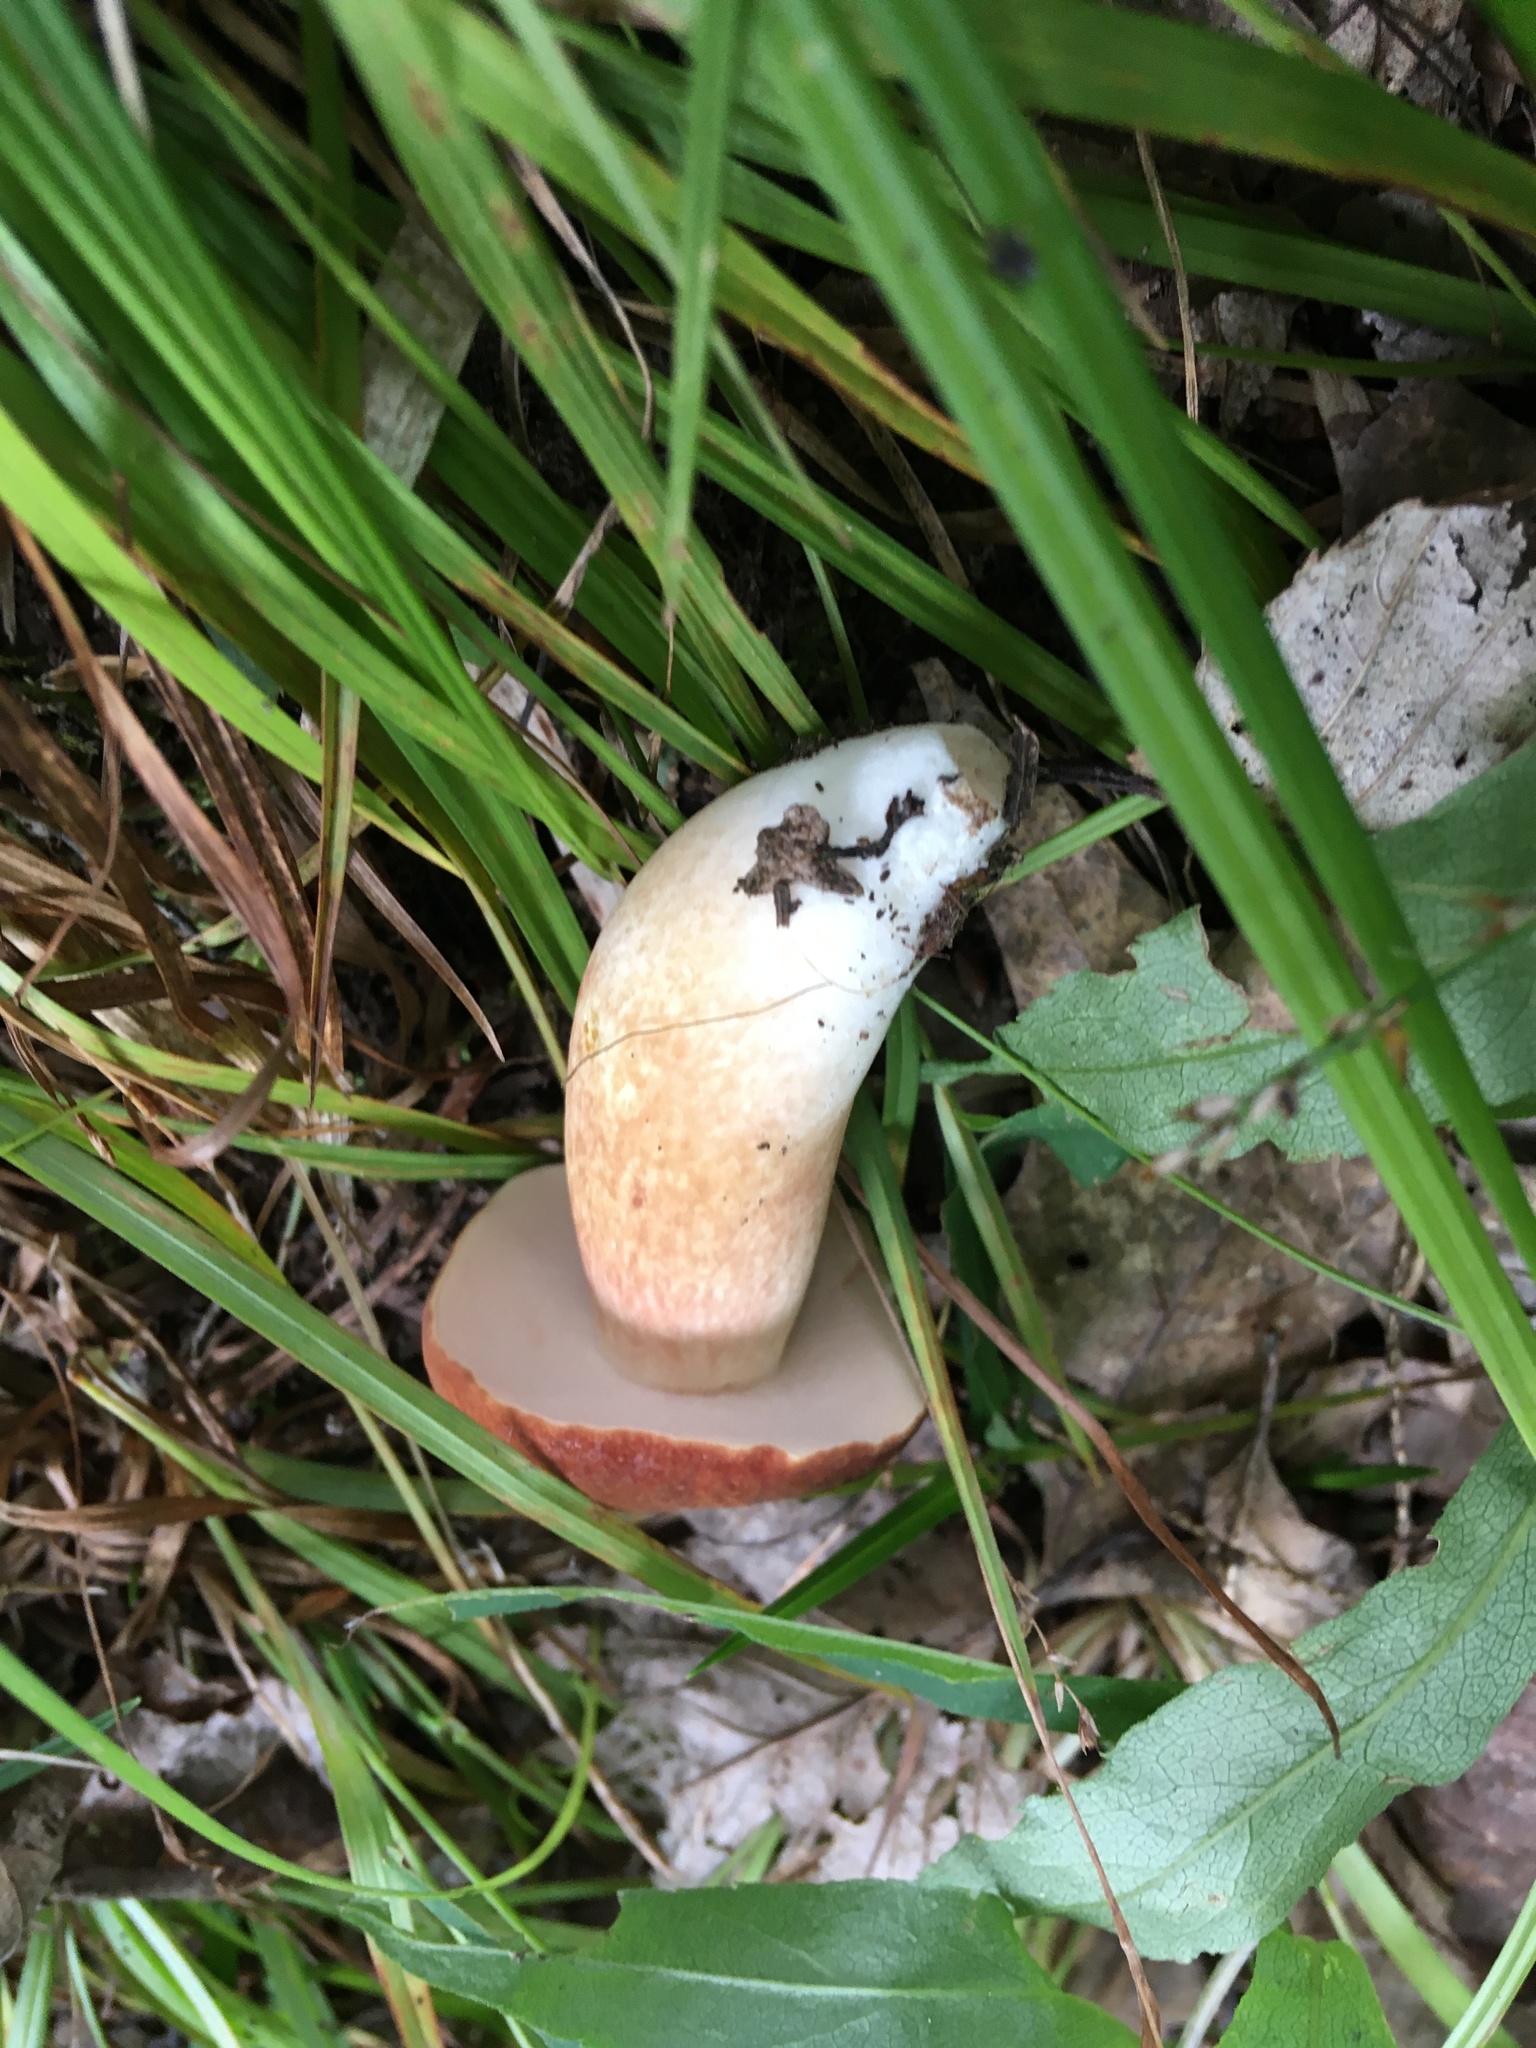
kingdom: Fungi
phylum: Basidiomycota
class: Agaricomycetes
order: Boletales
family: Boletaceae
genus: Xanthoconium
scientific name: Xanthoconium purpureum
